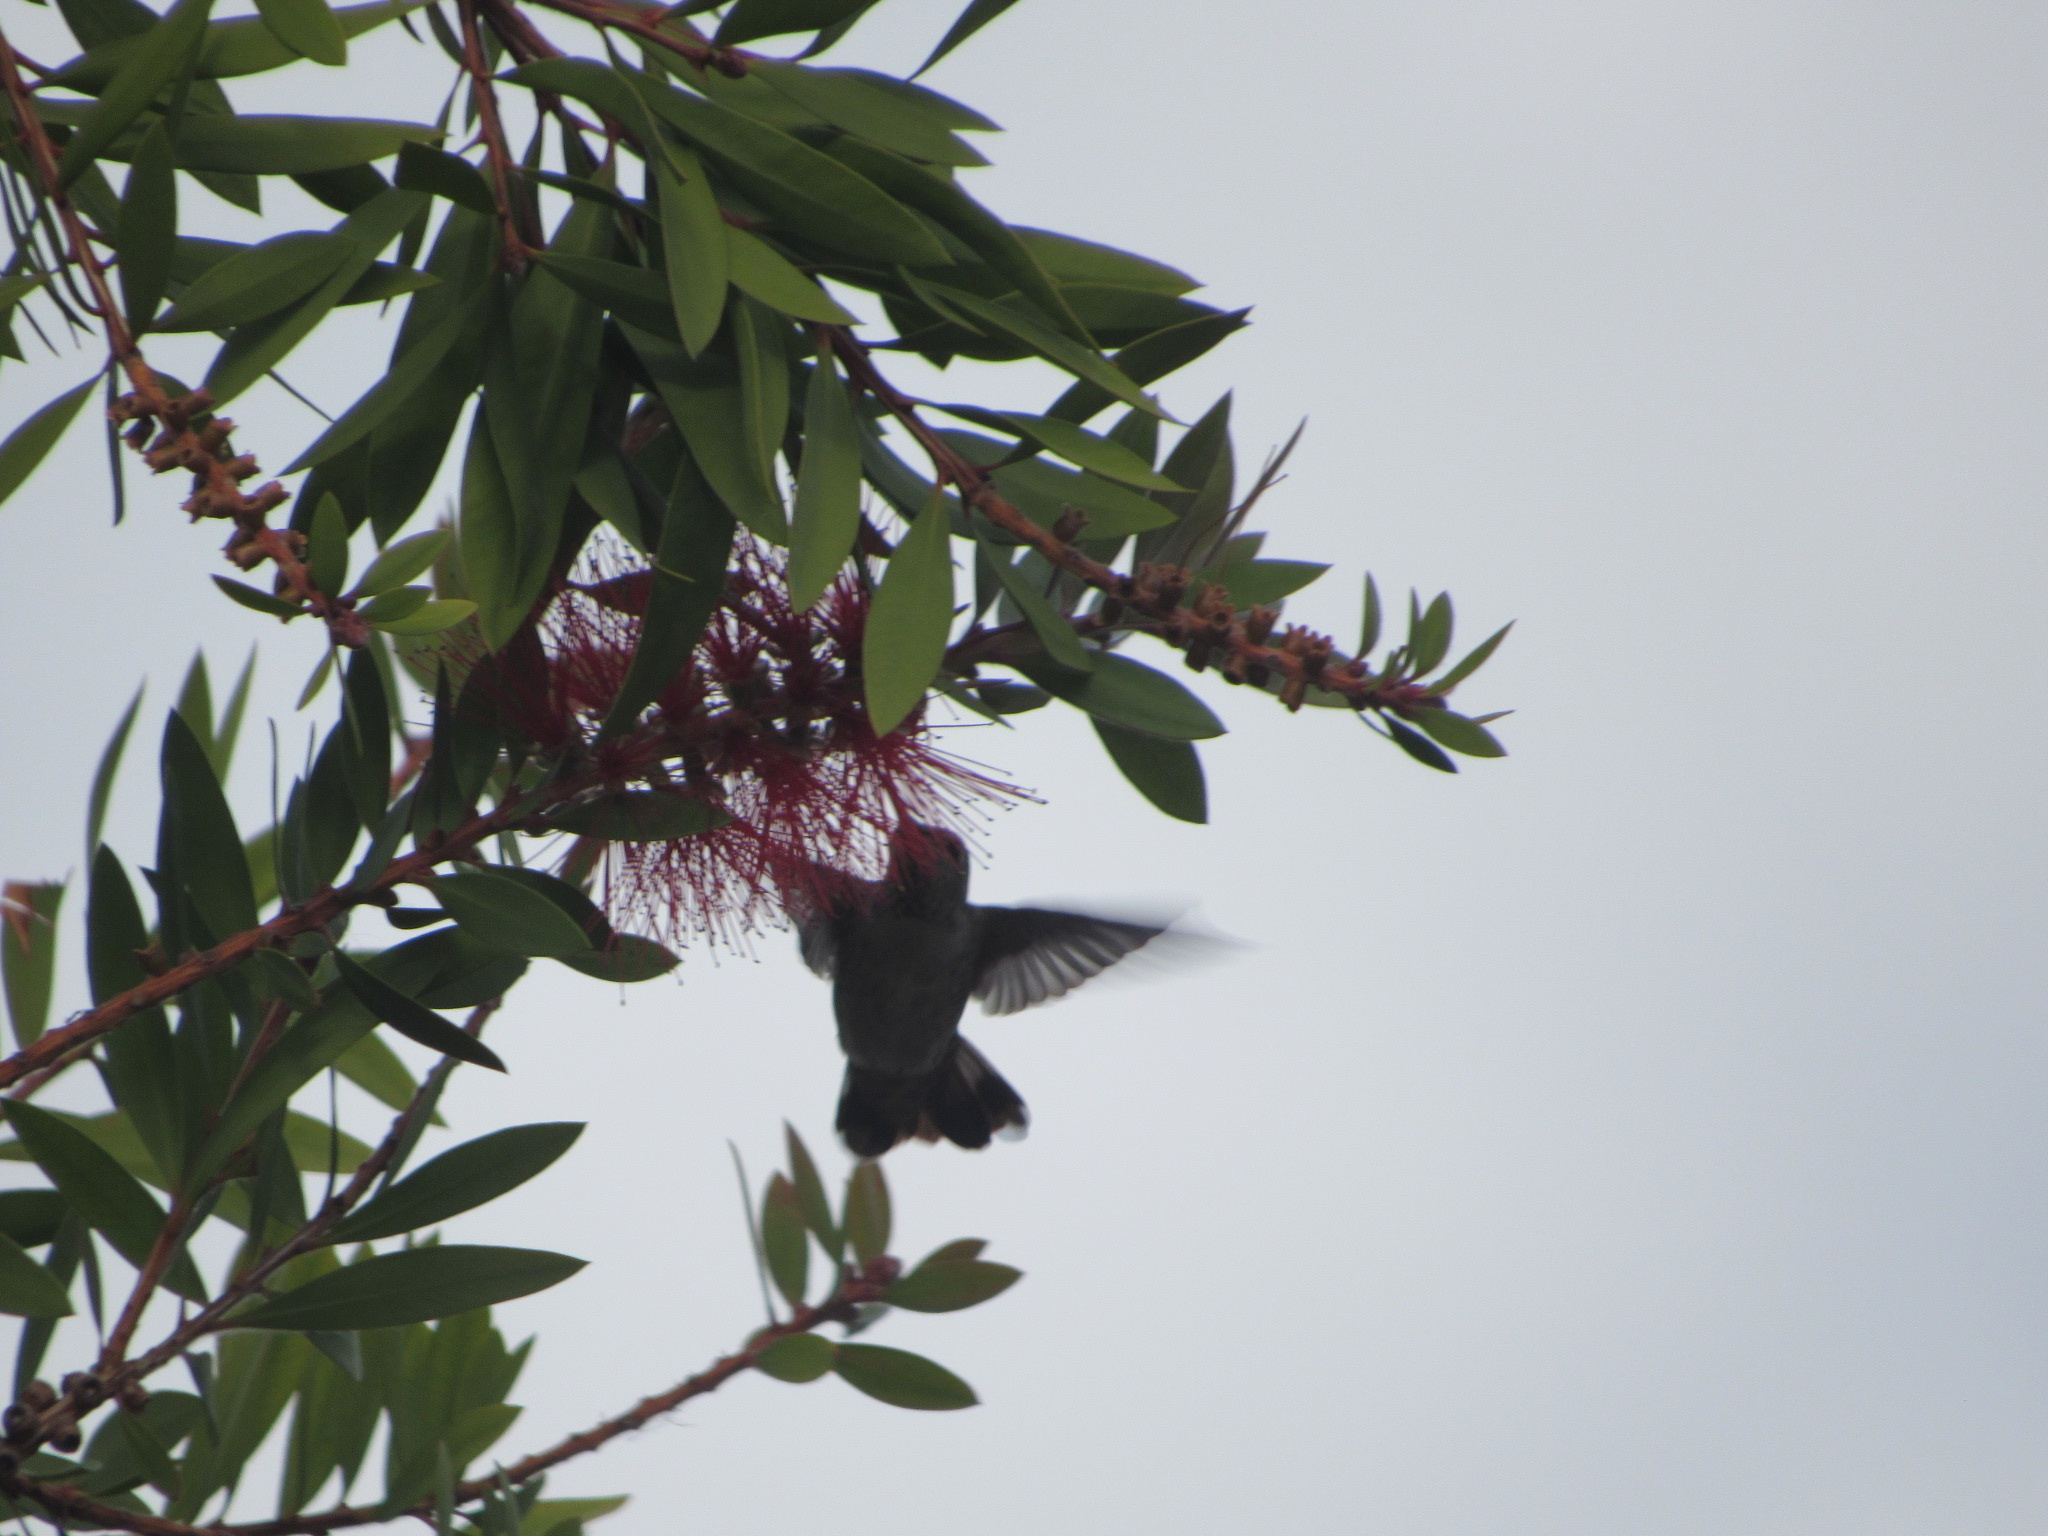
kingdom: Animalia
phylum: Chordata
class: Aves
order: Apodiformes
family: Trochilidae
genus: Calypte
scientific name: Calypte anna
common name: Anna's hummingbird
